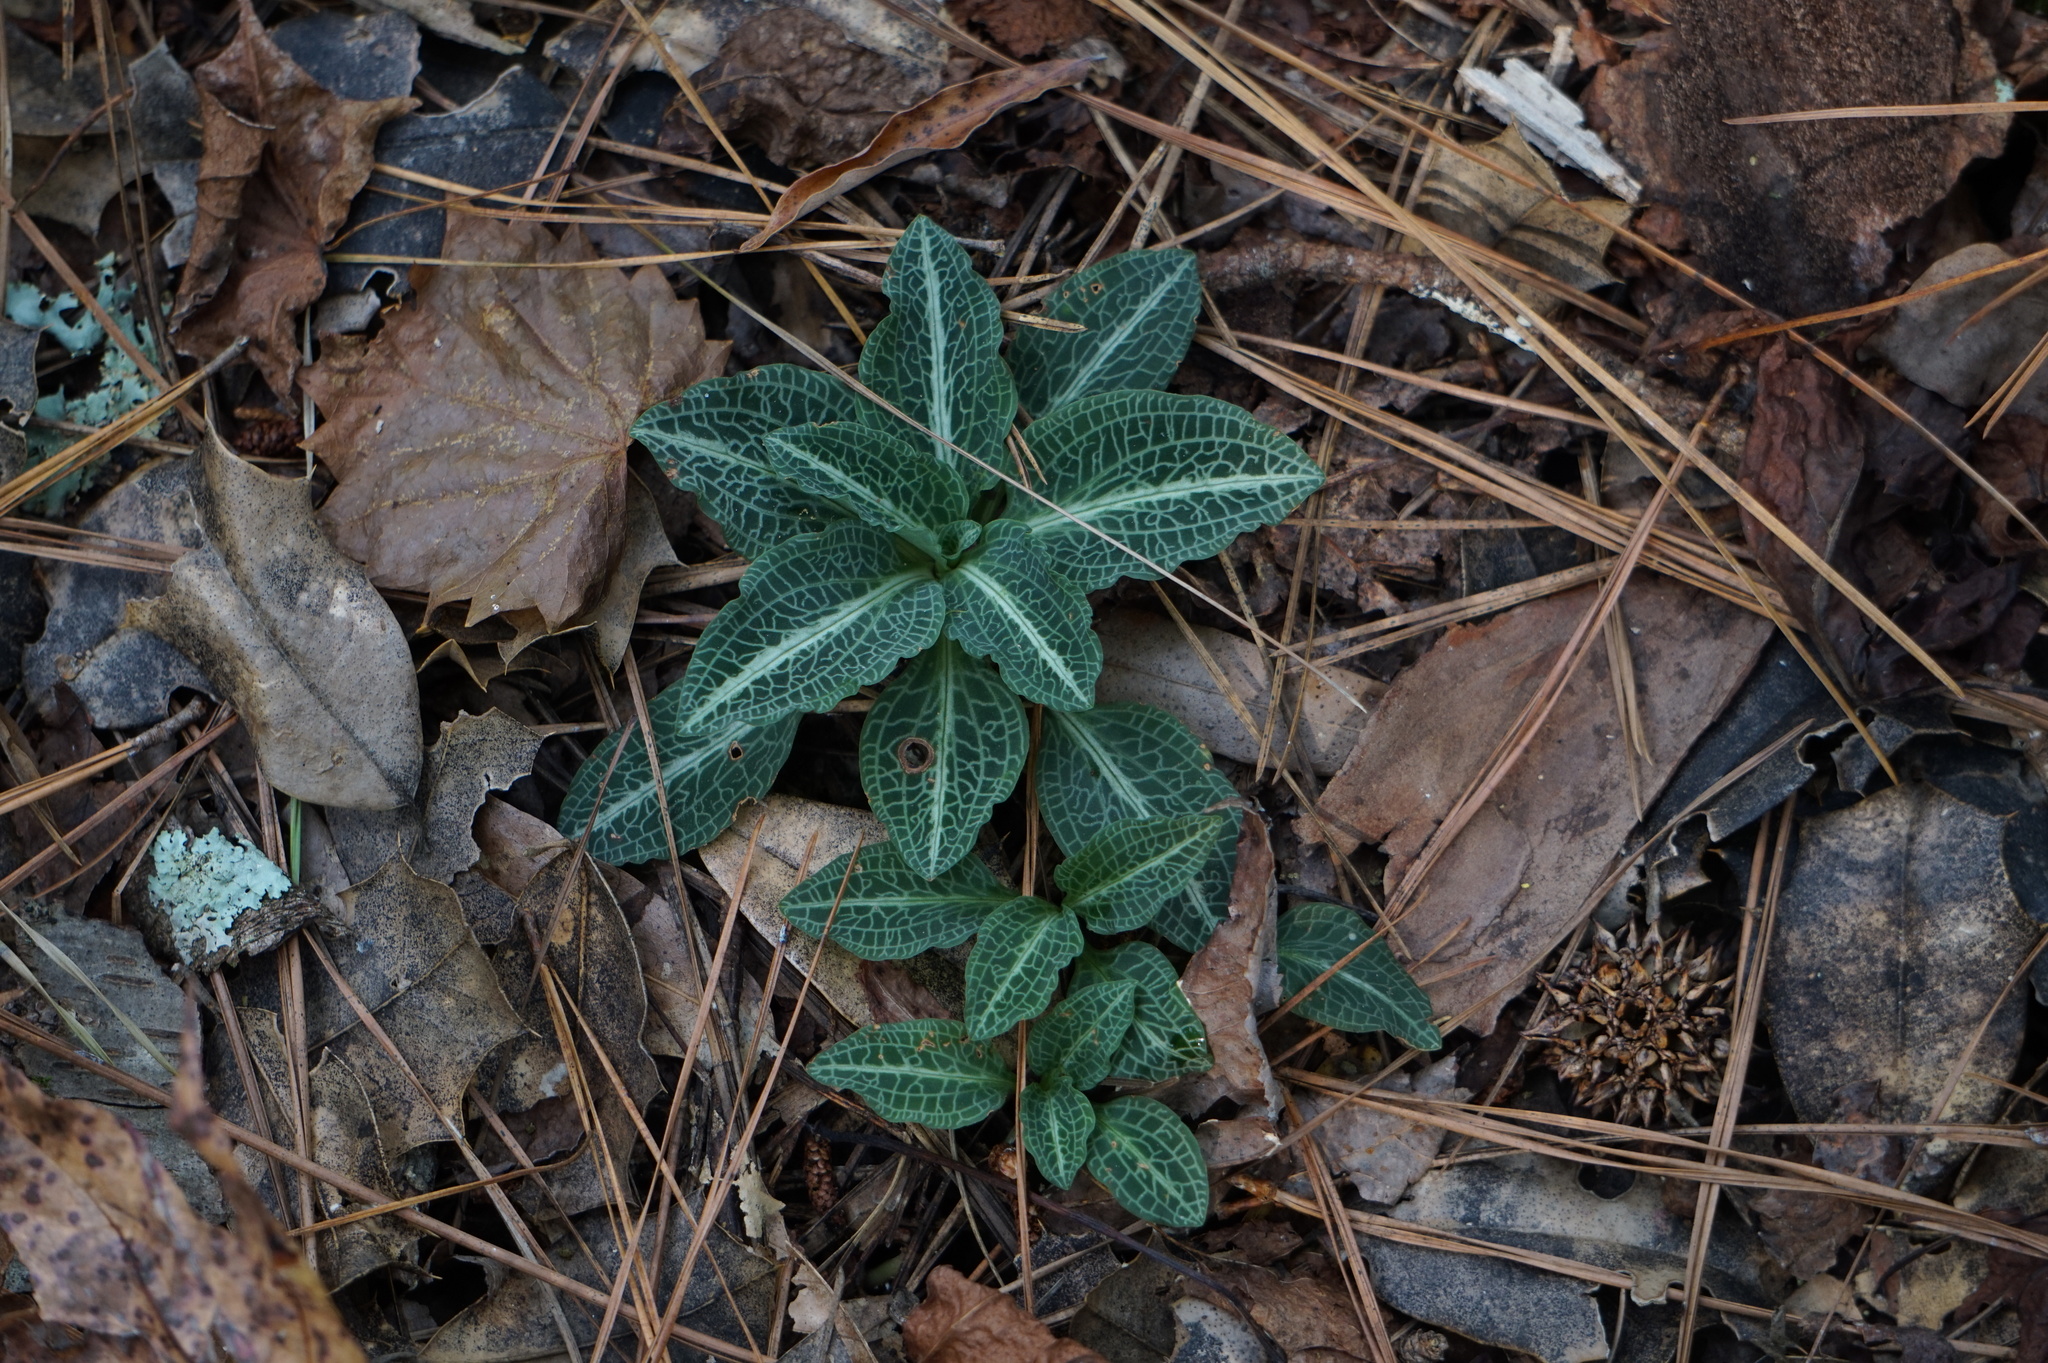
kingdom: Plantae
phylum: Tracheophyta
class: Liliopsida
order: Asparagales
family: Orchidaceae
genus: Goodyera
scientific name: Goodyera pubescens
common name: Downy rattlesnake-plantain
